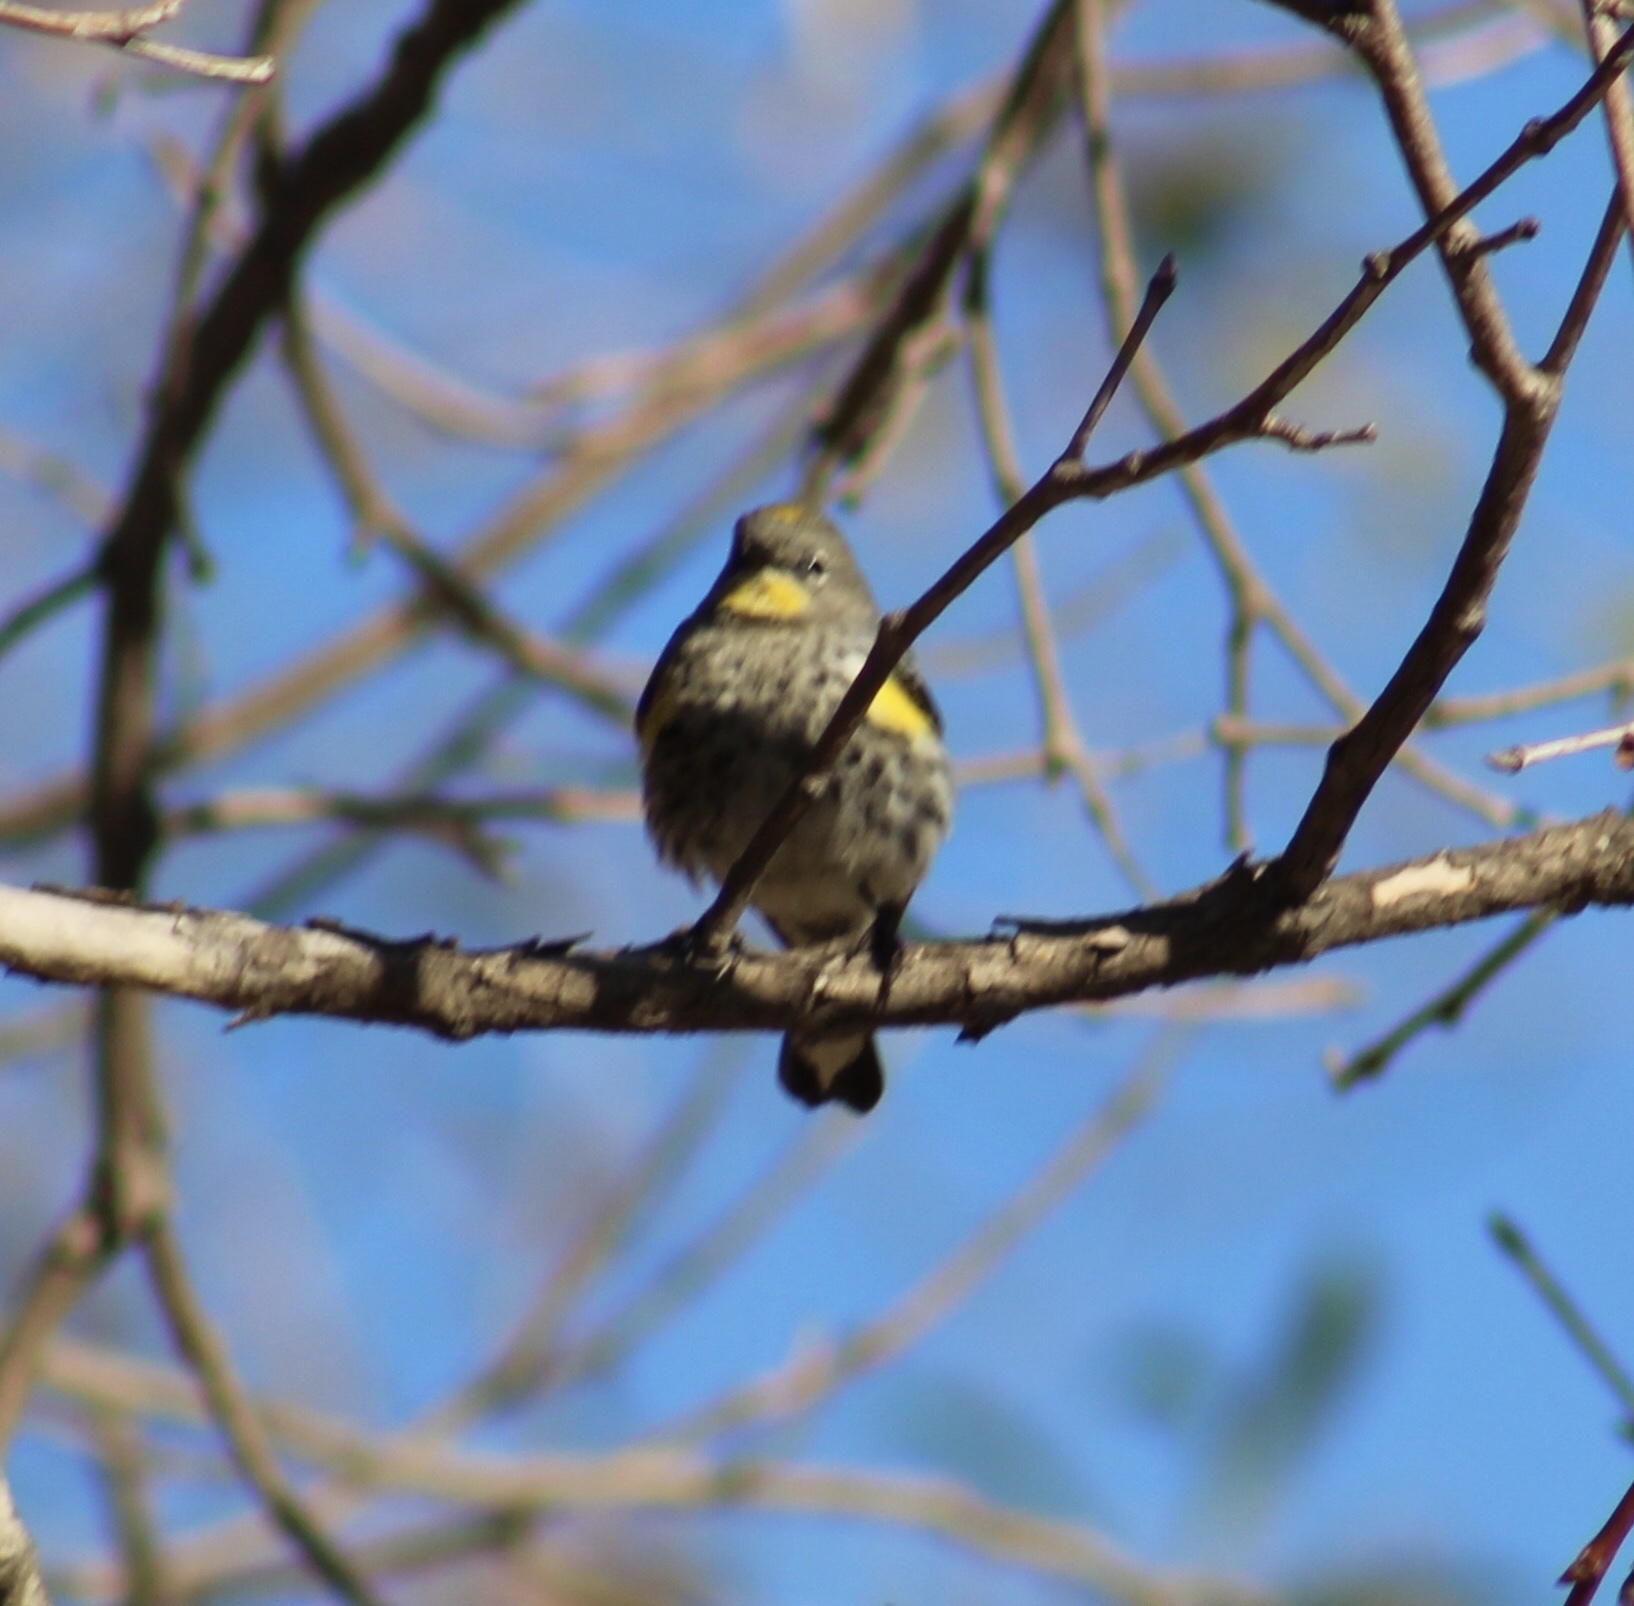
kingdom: Animalia
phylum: Chordata
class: Aves
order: Passeriformes
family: Parulidae
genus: Setophaga
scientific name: Setophaga coronata
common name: Myrtle warbler
